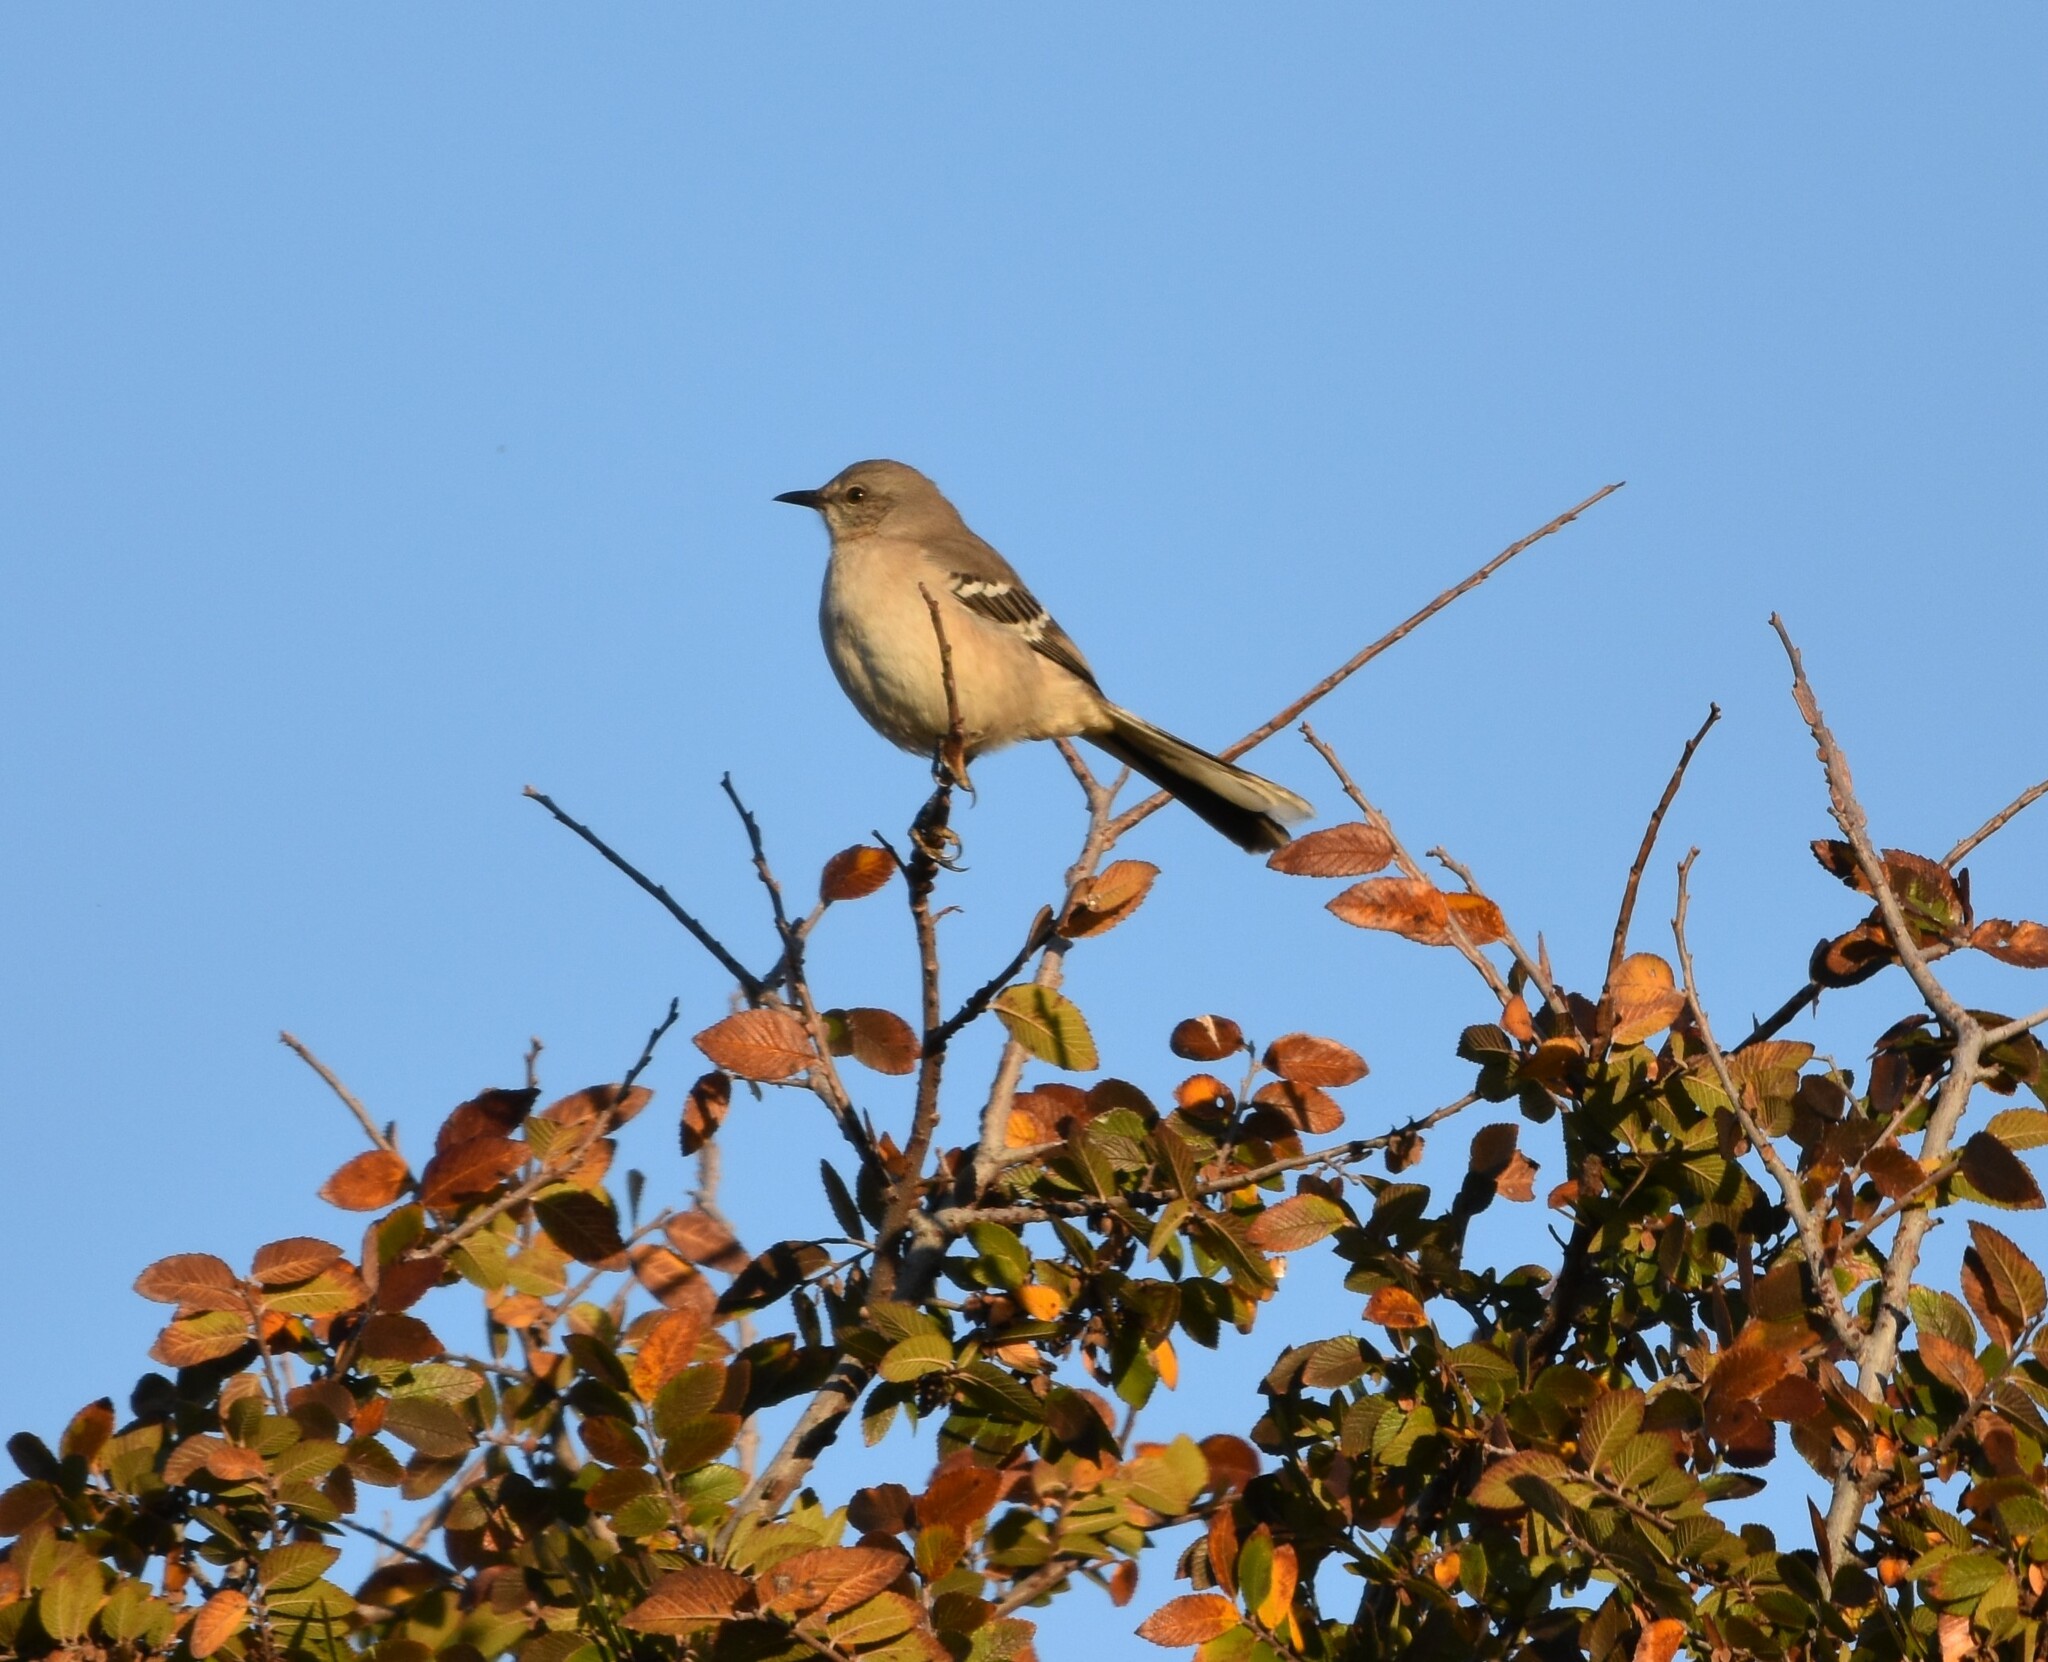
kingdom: Animalia
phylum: Chordata
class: Aves
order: Passeriformes
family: Mimidae
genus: Mimus
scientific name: Mimus polyglottos
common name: Northern mockingbird
